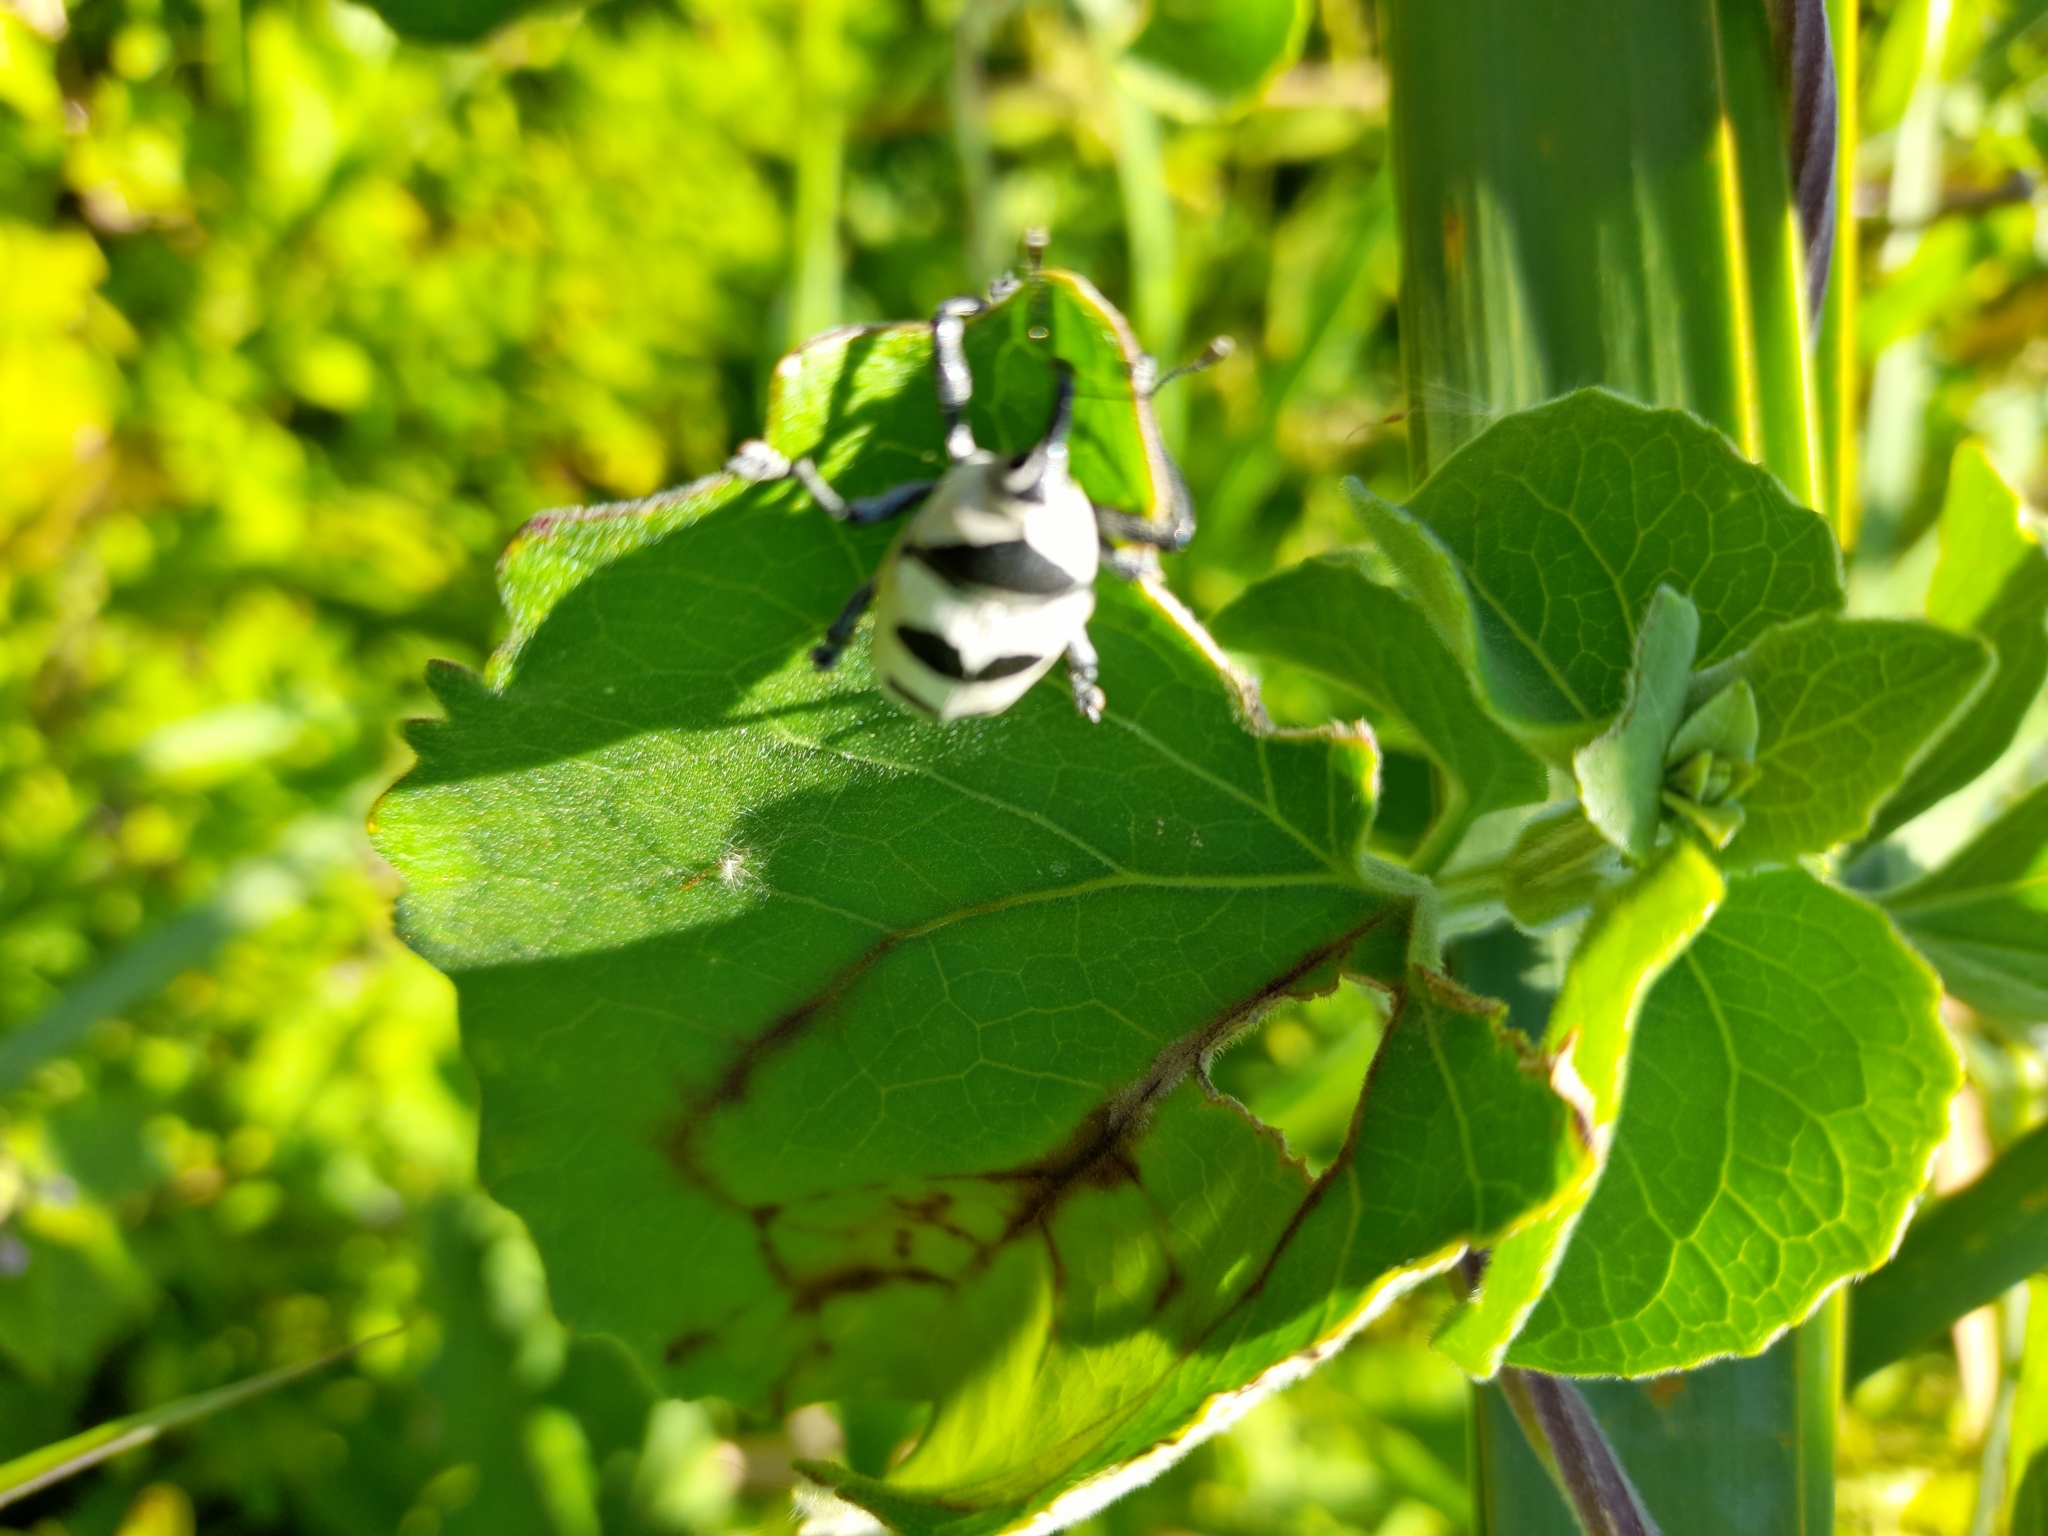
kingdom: Animalia
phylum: Arthropoda
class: Insecta
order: Coleoptera
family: Curculionidae
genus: Cholus
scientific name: Cholus annulatus
